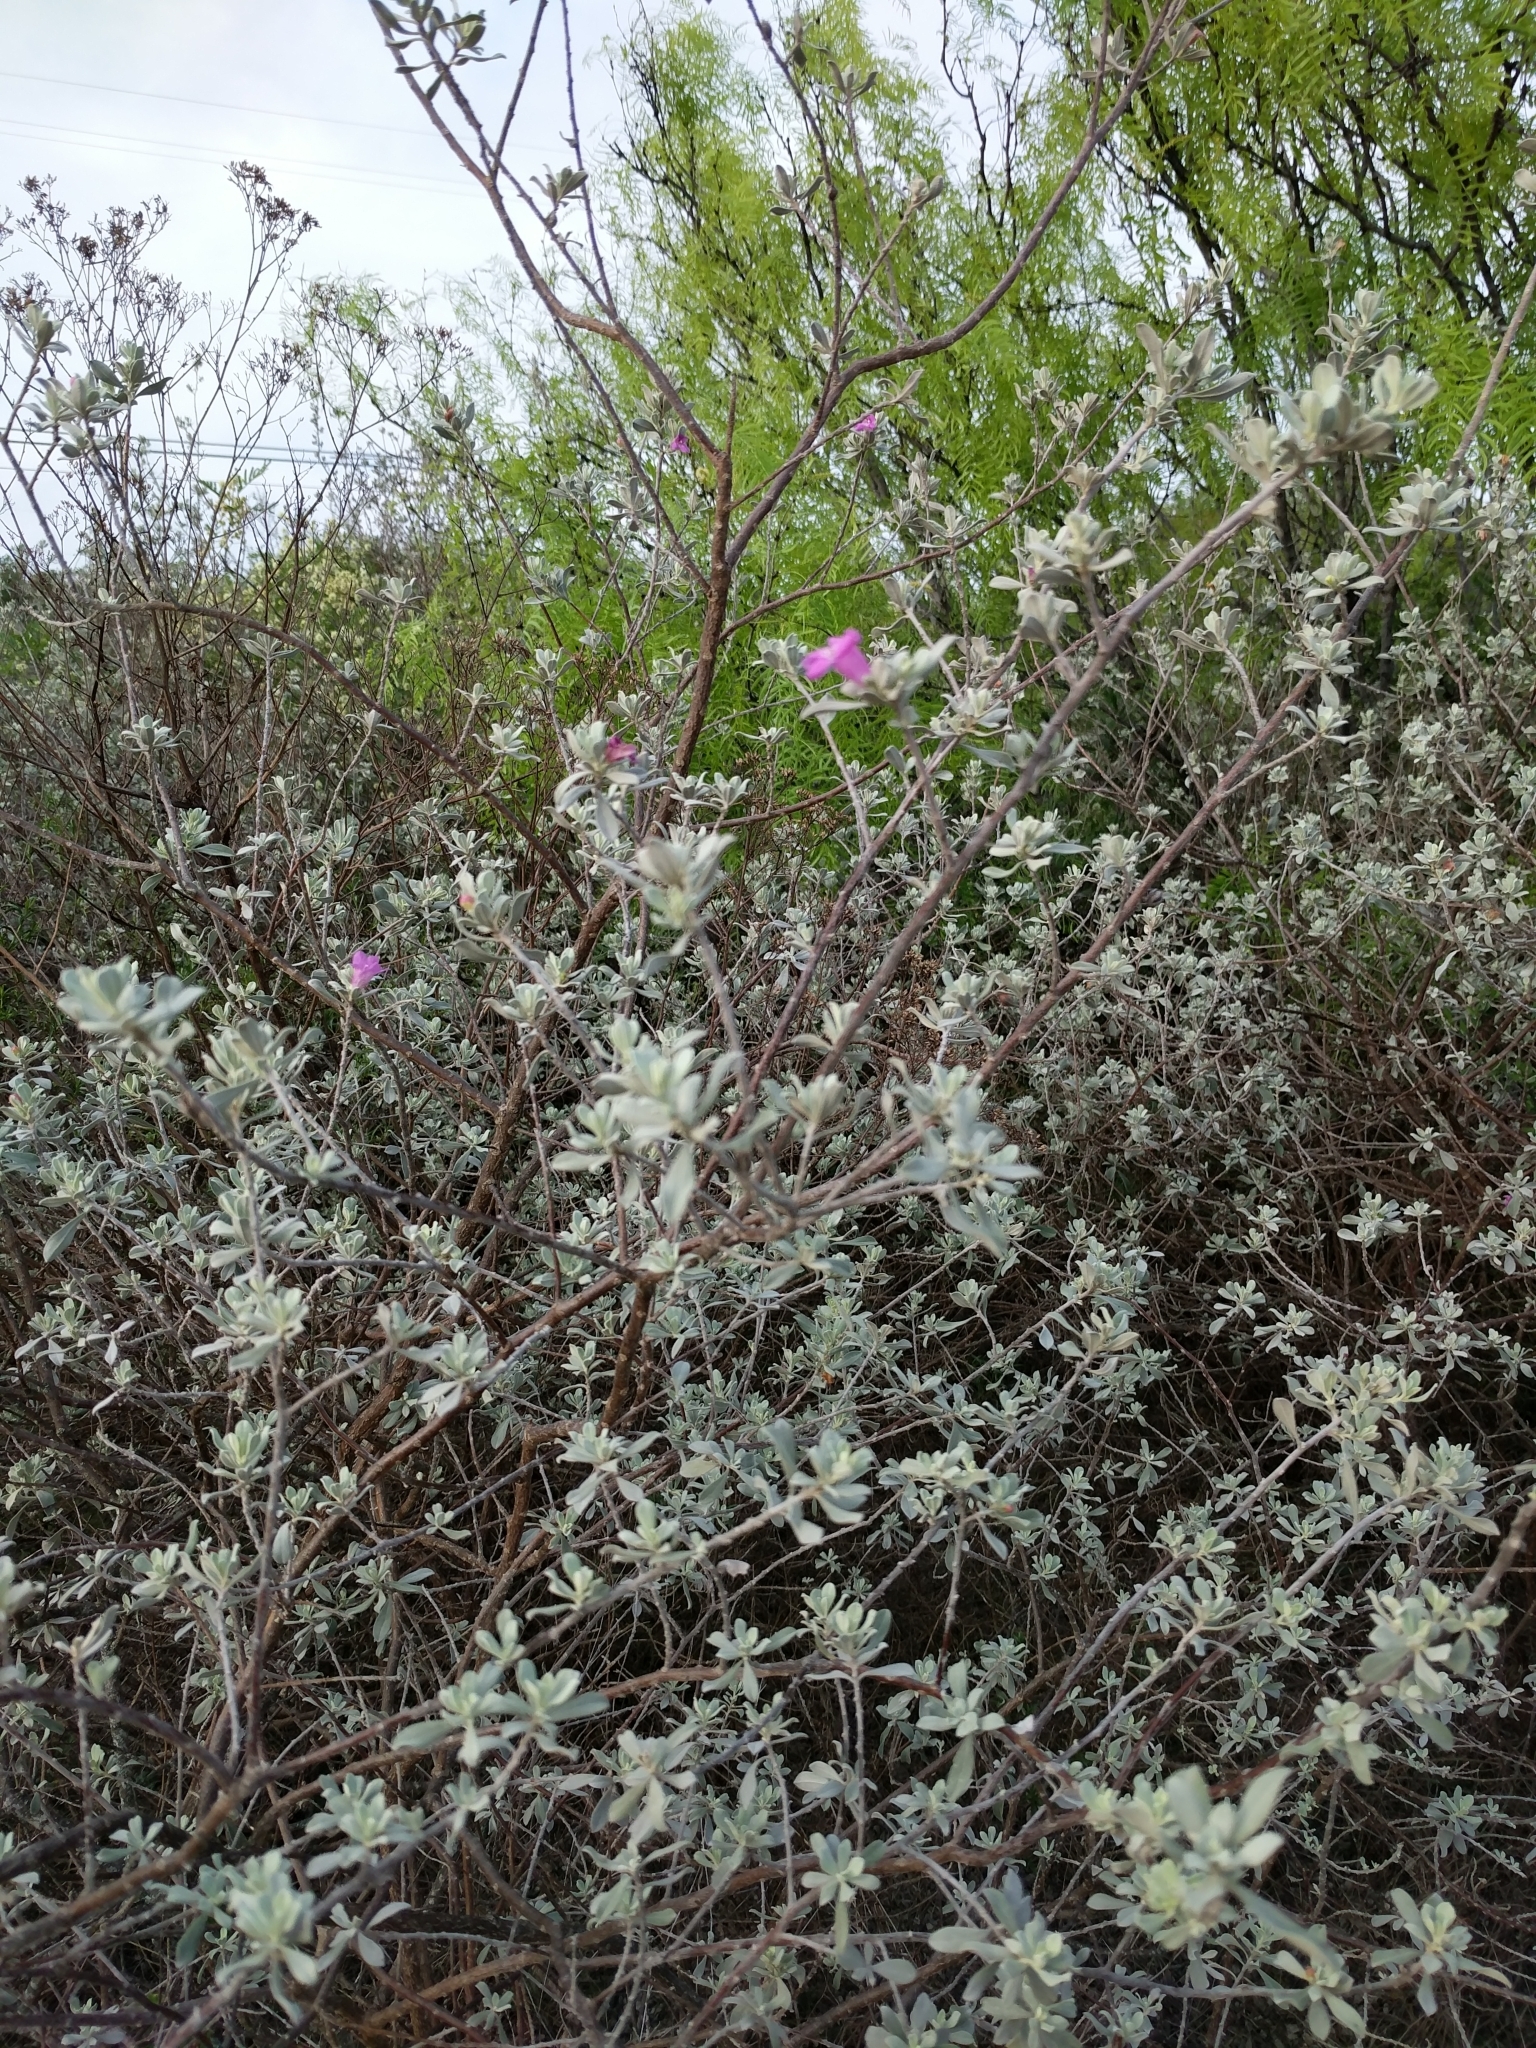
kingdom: Plantae
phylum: Tracheophyta
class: Magnoliopsida
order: Lamiales
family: Scrophulariaceae
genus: Leucophyllum
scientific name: Leucophyllum frutescens
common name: Texas silverleaf
